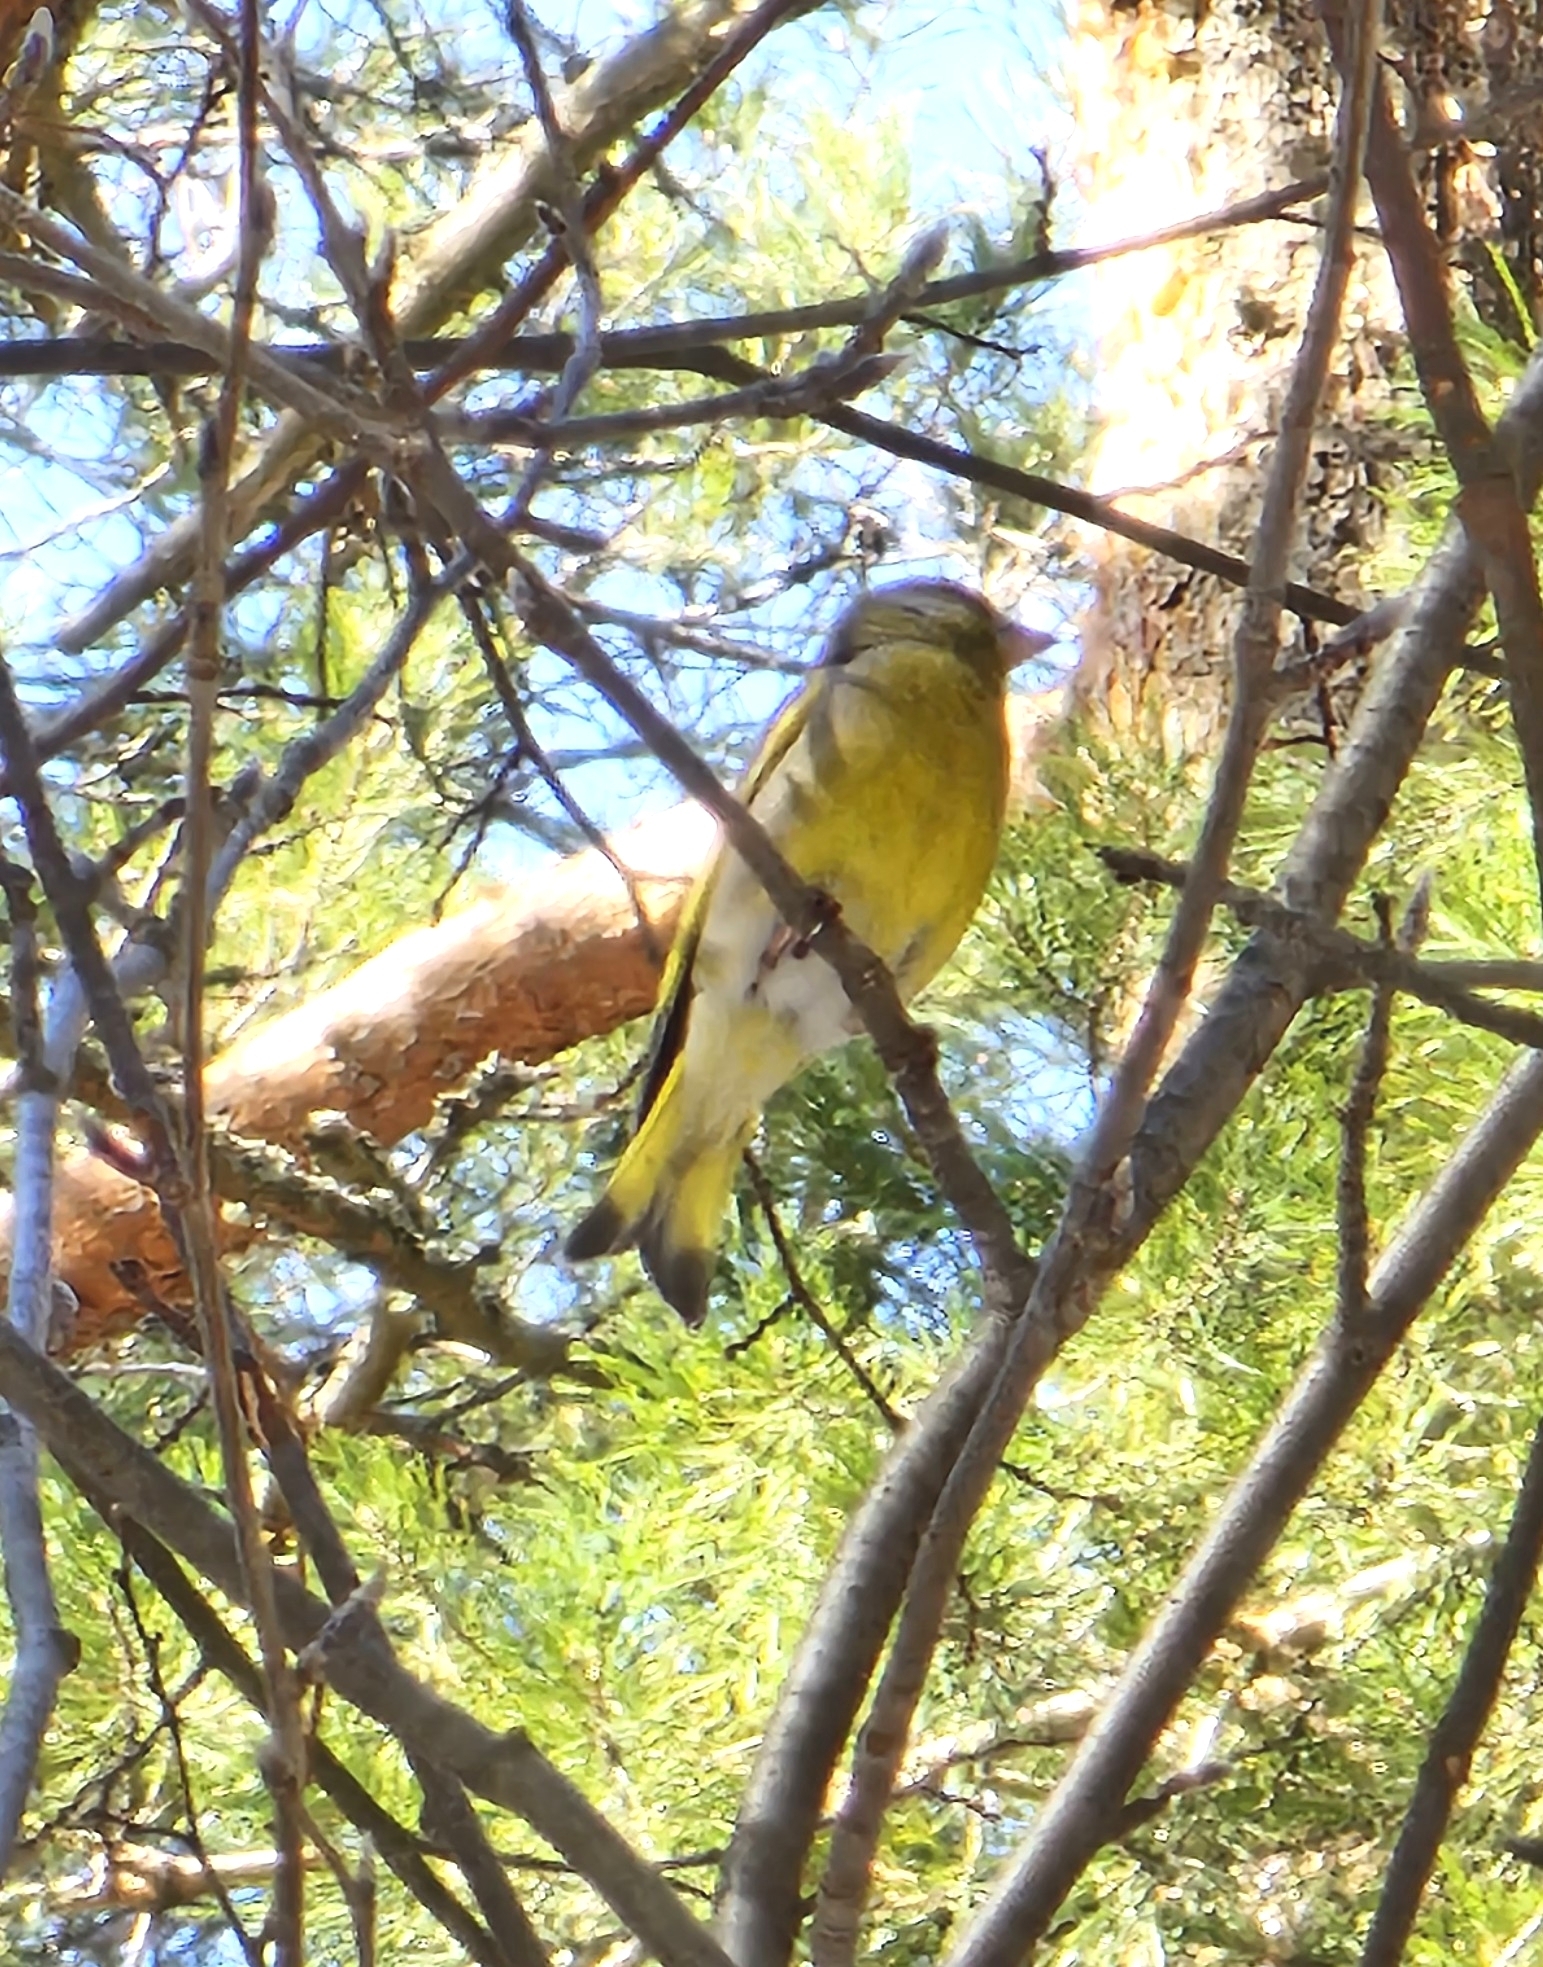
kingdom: Plantae
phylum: Tracheophyta
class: Liliopsida
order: Poales
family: Poaceae
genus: Chloris
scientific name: Chloris chloris
